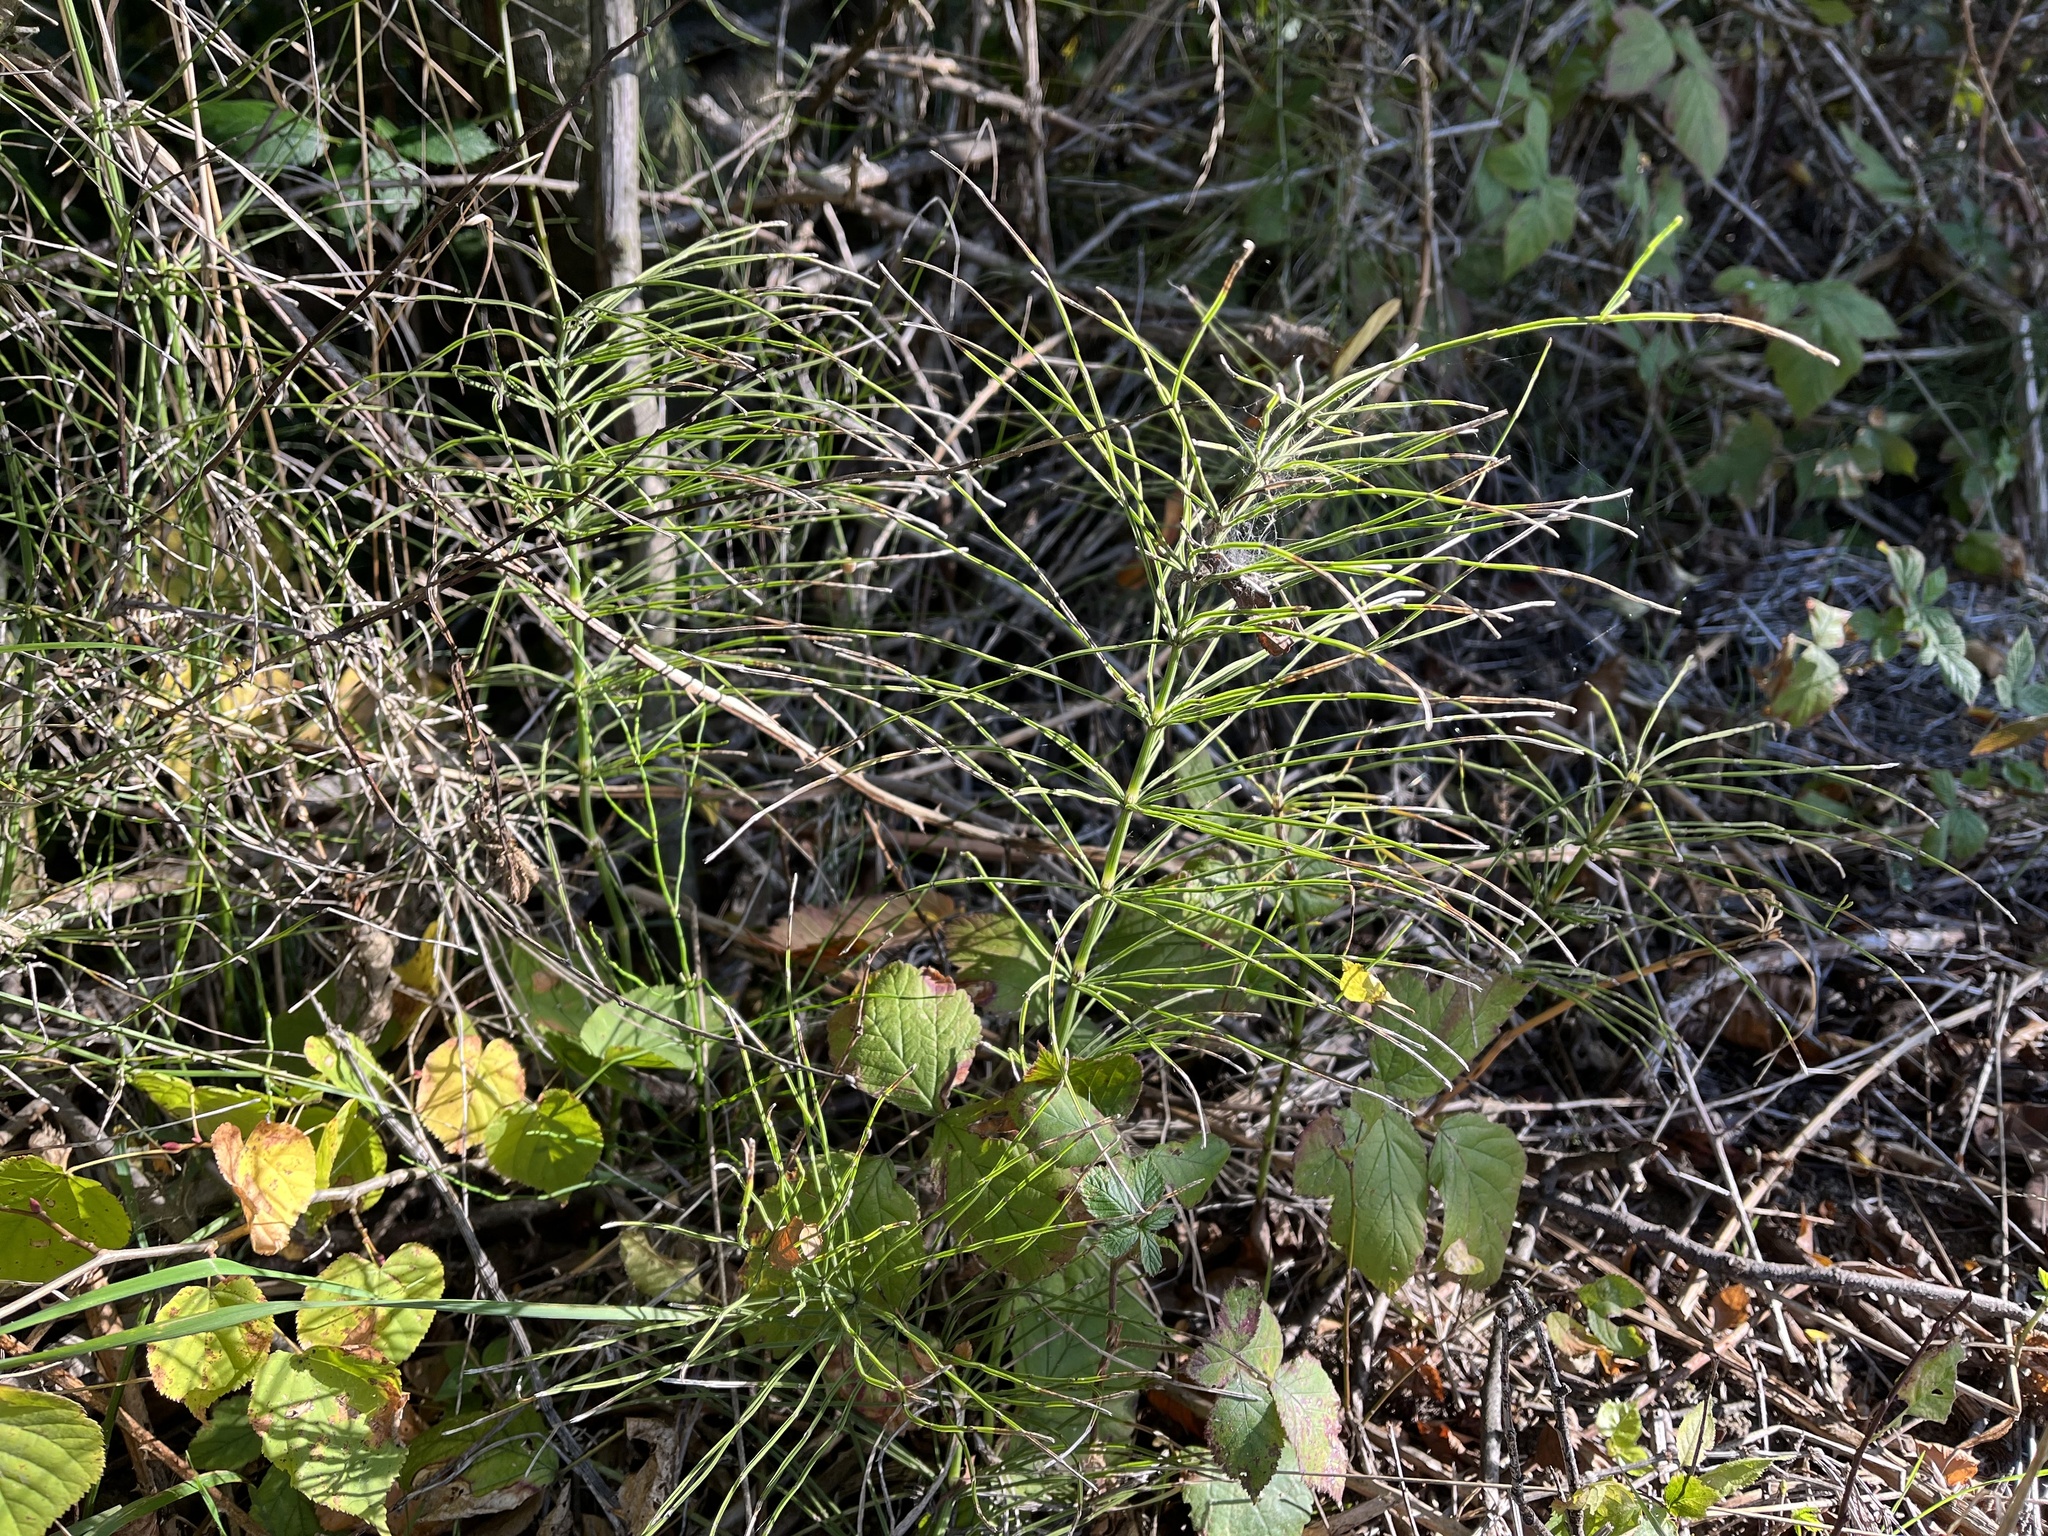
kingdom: Plantae
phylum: Tracheophyta
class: Polypodiopsida
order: Equisetales
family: Equisetaceae
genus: Equisetum
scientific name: Equisetum arvense
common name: Field horsetail
